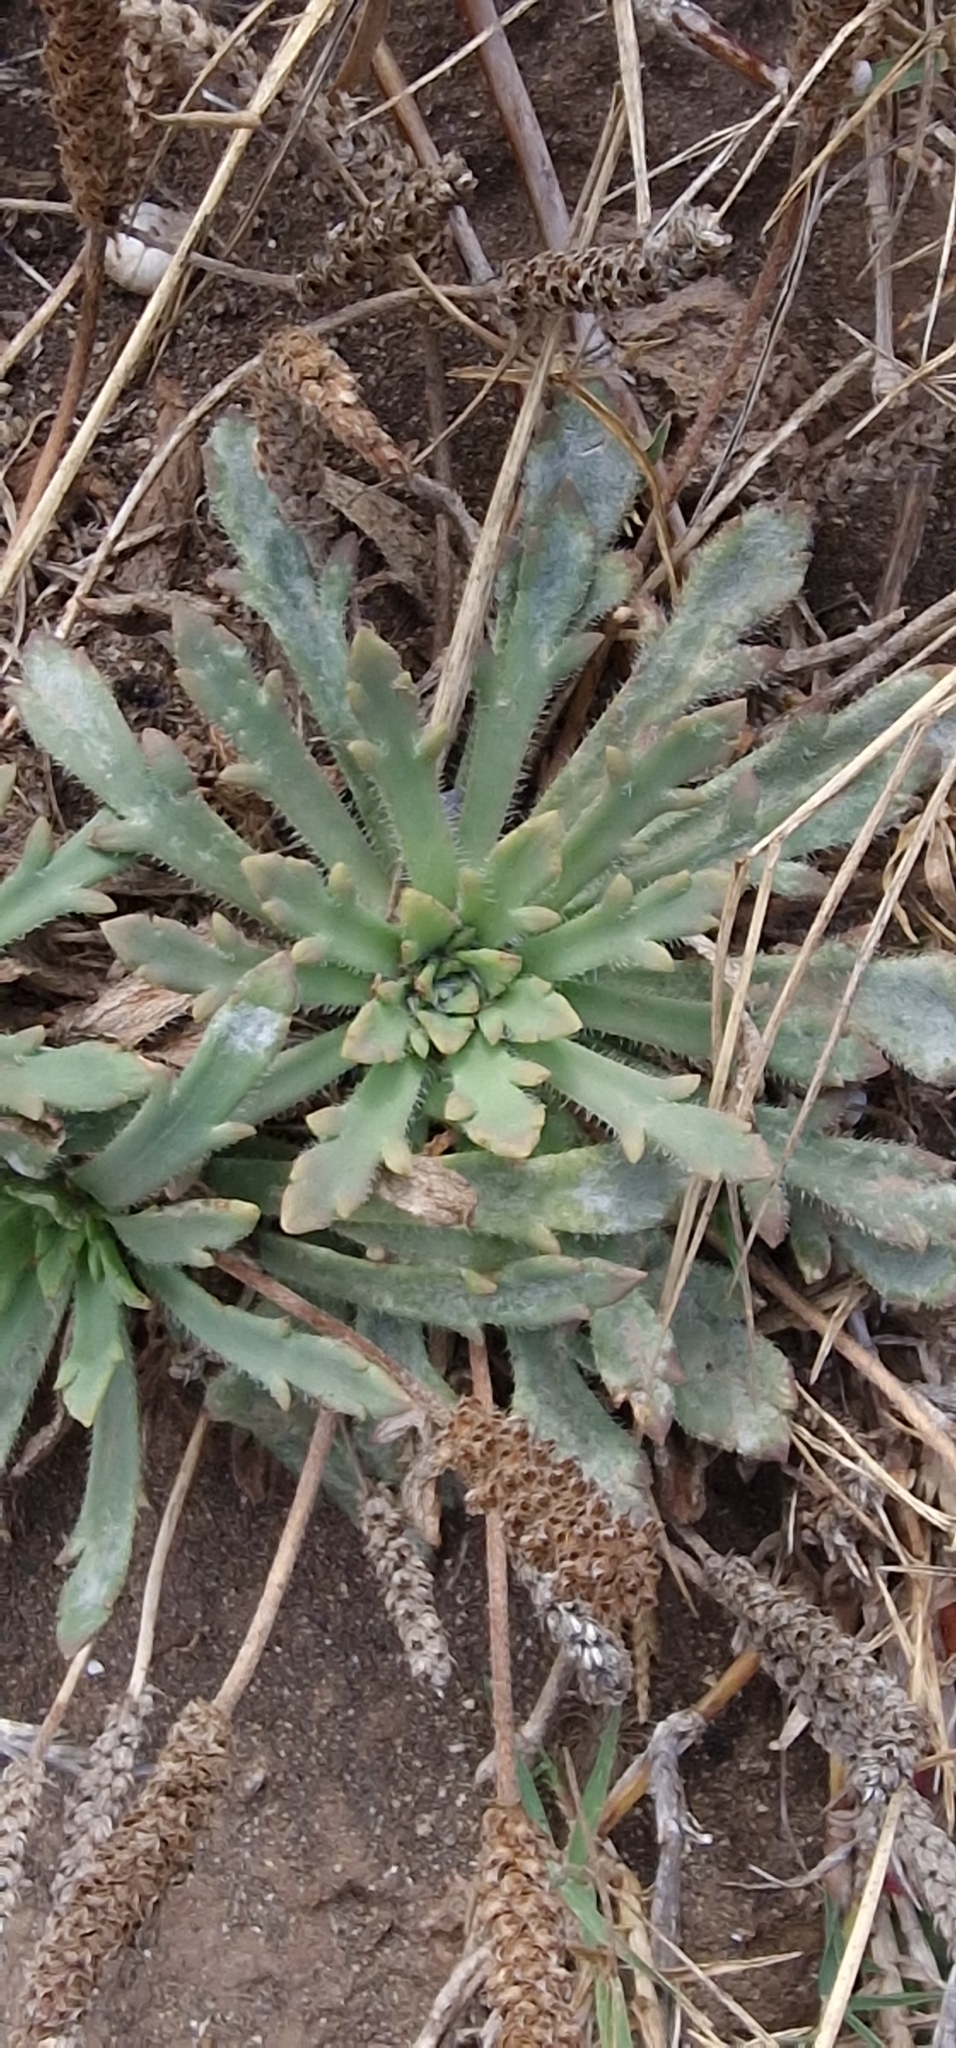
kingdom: Plantae
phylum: Tracheophyta
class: Magnoliopsida
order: Lamiales
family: Plantaginaceae
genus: Plantago
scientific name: Plantago coronopus
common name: Buck's-horn plantain
